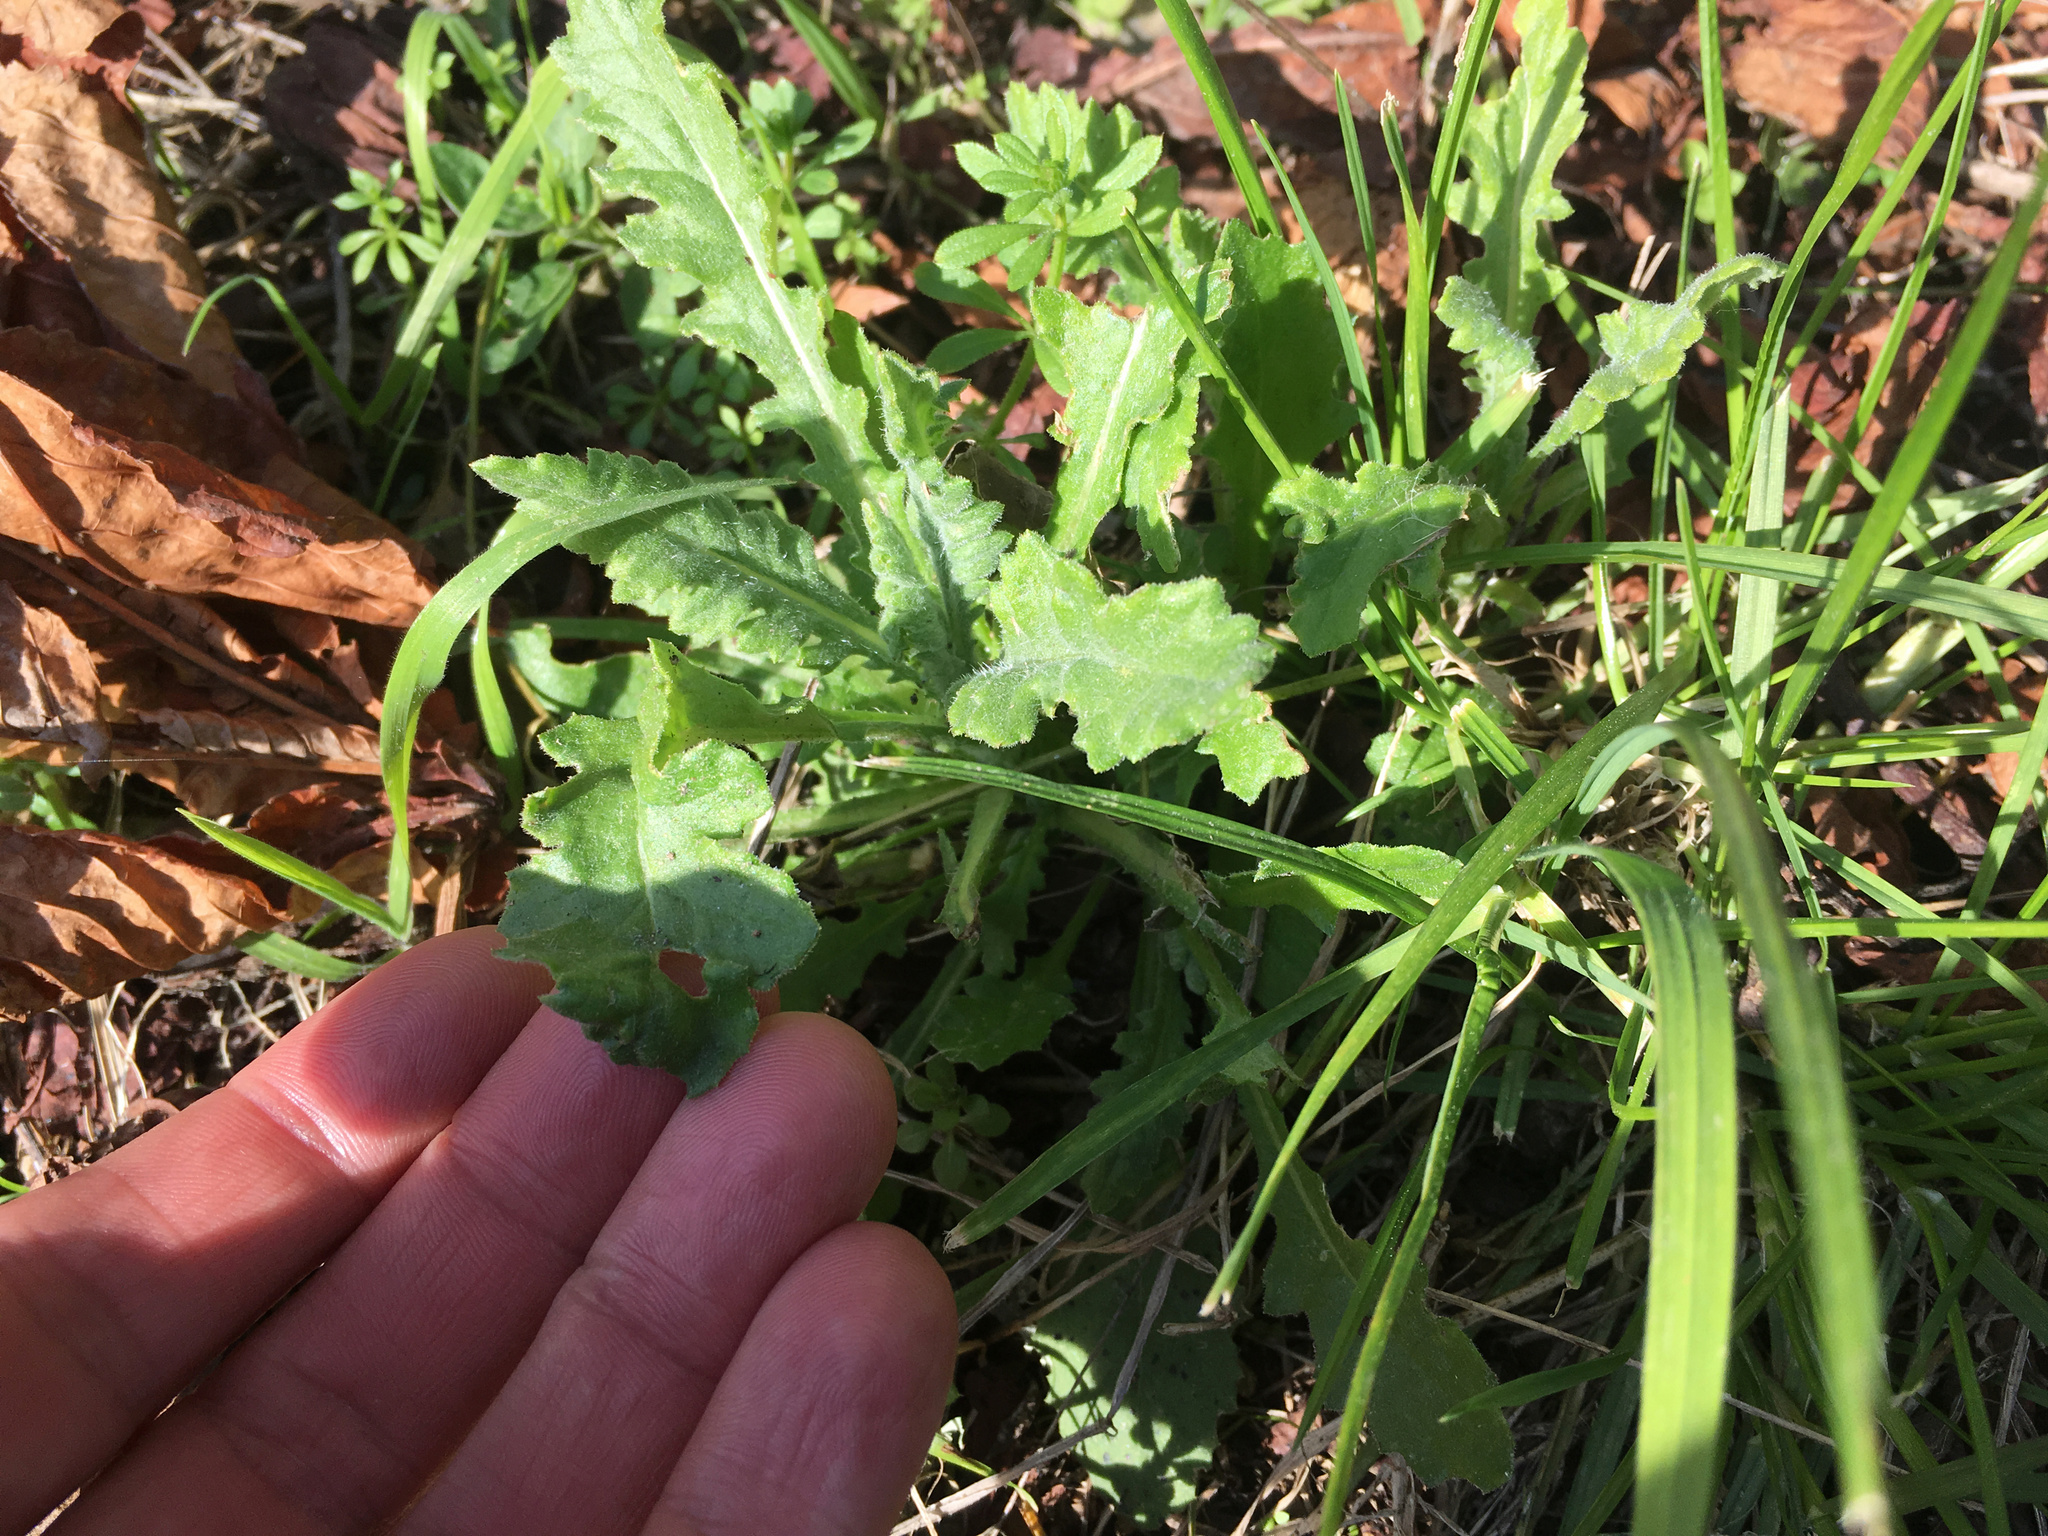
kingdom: Plantae
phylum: Tracheophyta
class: Magnoliopsida
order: Asterales
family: Asteraceae
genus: Senecio
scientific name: Senecio glomeratus
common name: Cutleaf burnweed
